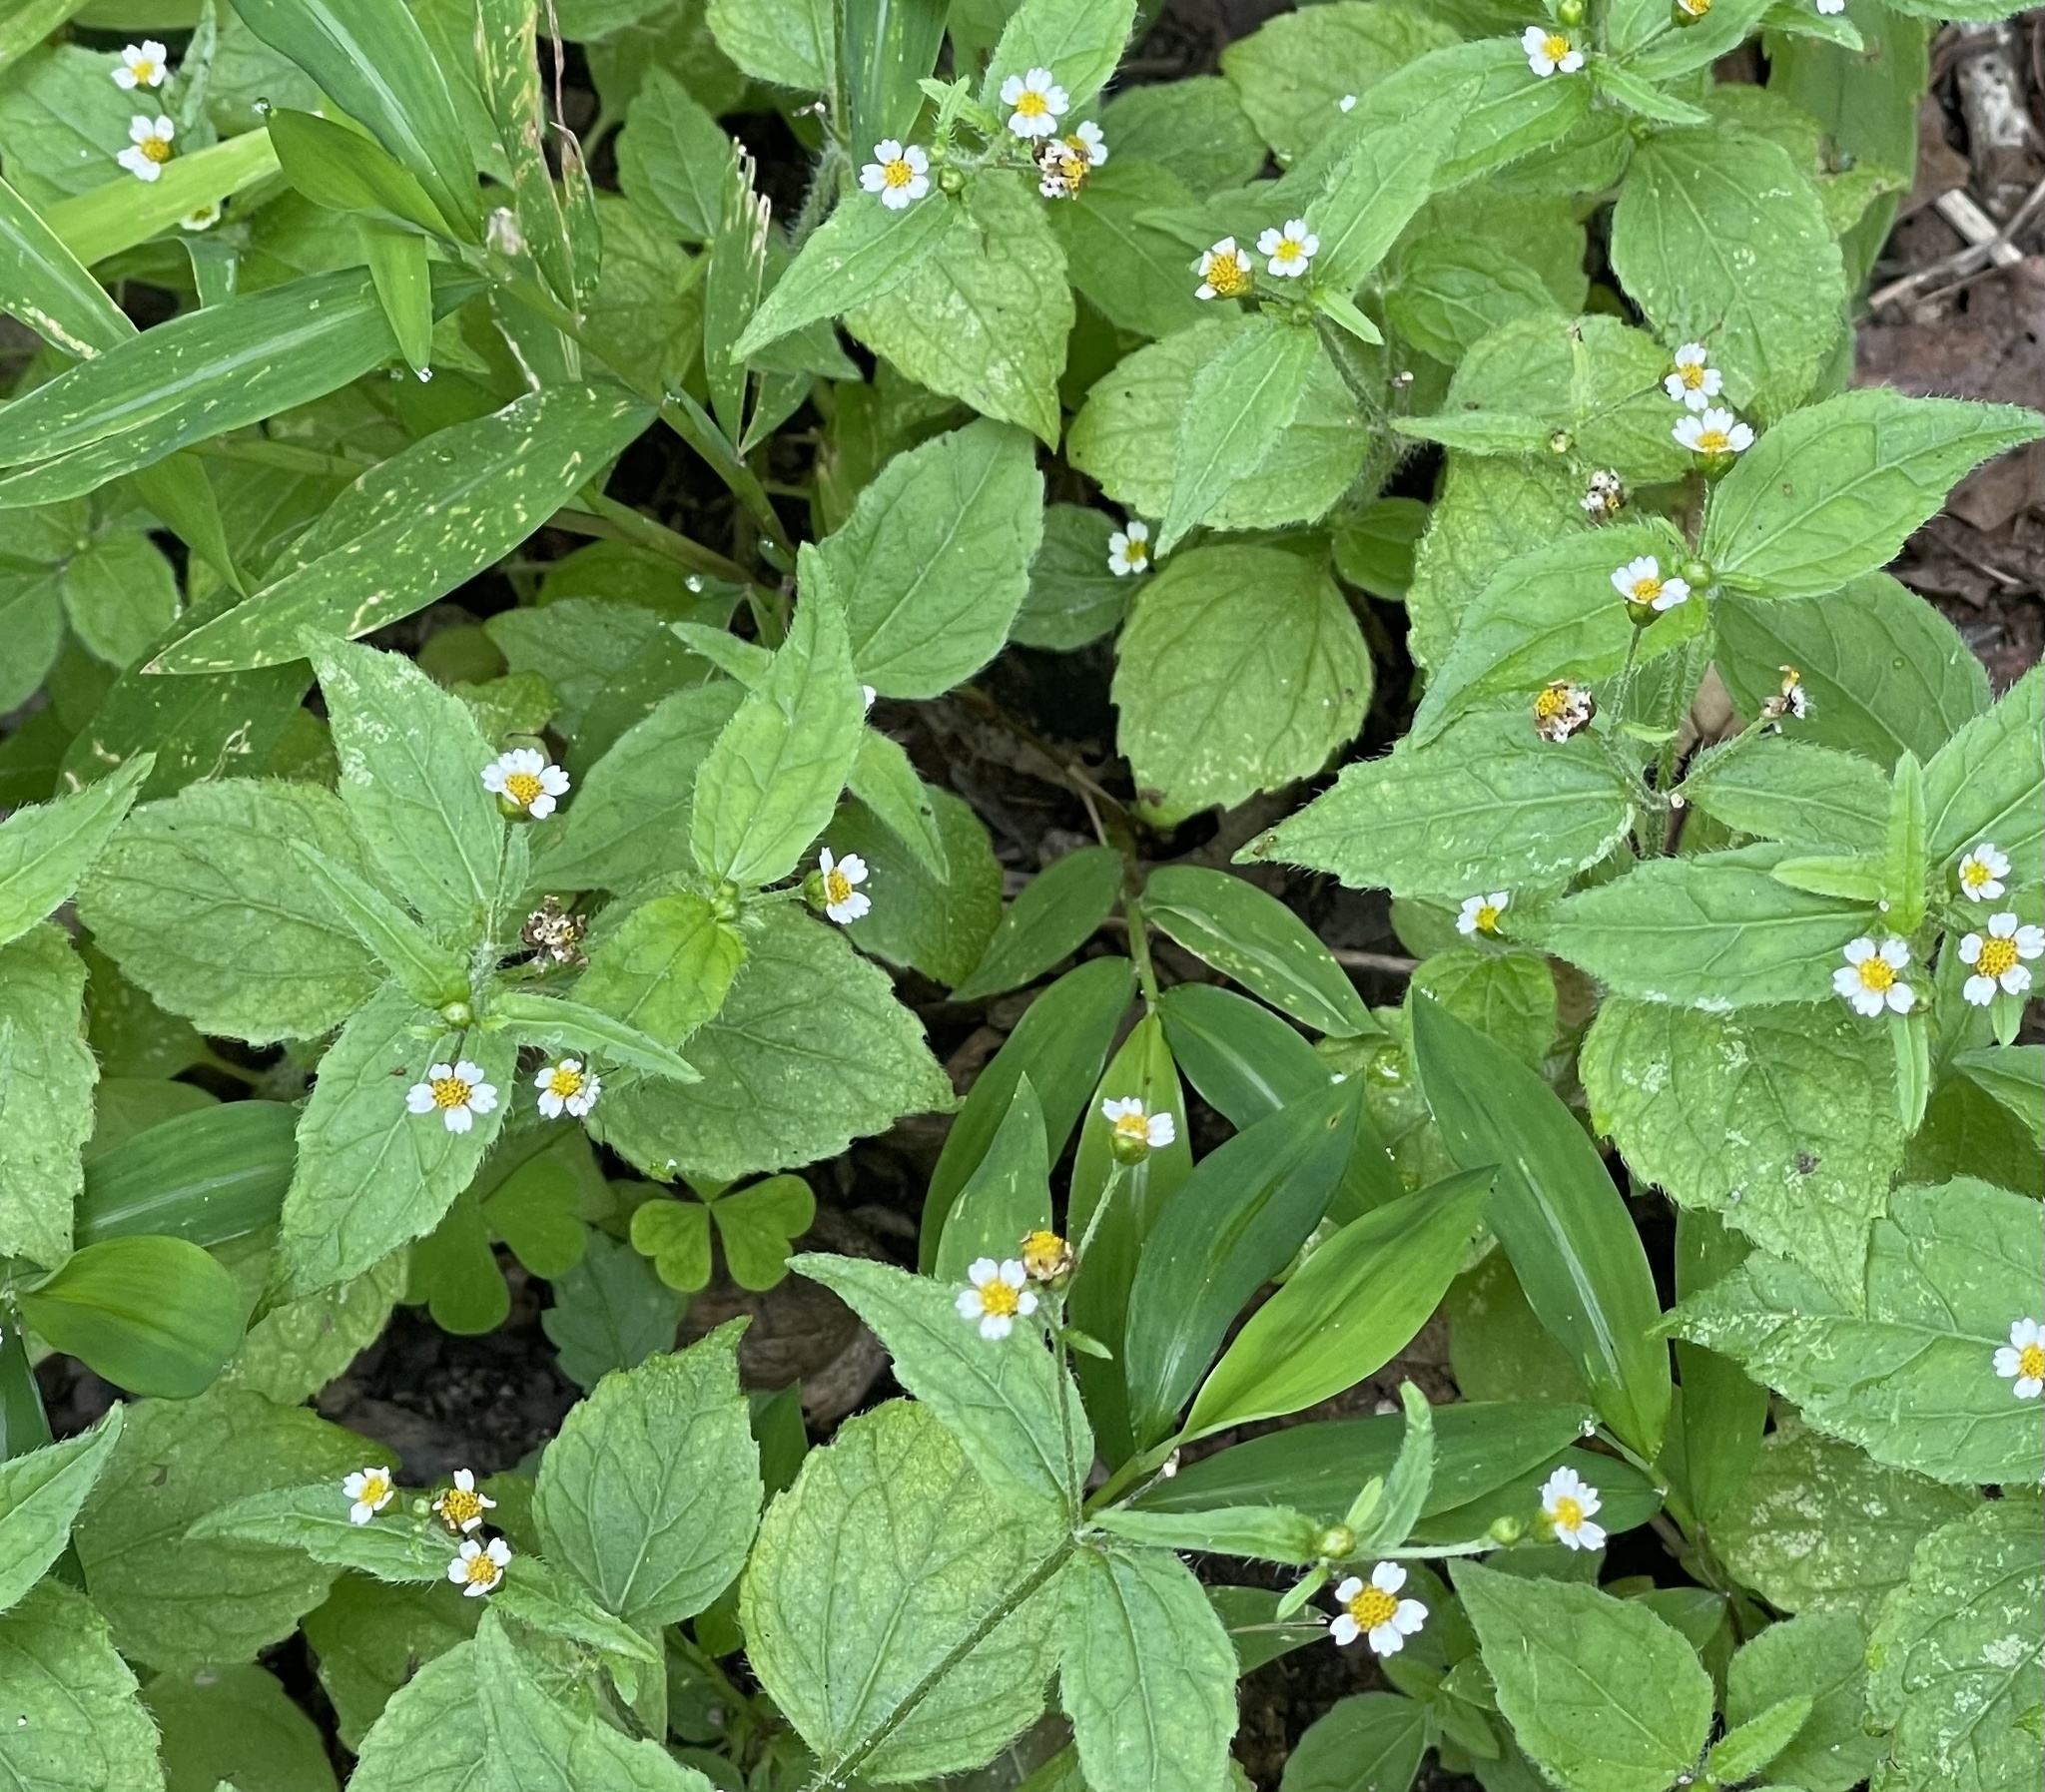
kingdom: Plantae
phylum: Tracheophyta
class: Magnoliopsida
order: Asterales
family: Asteraceae
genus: Galinsoga
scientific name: Galinsoga quadriradiata
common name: Shaggy soldier
